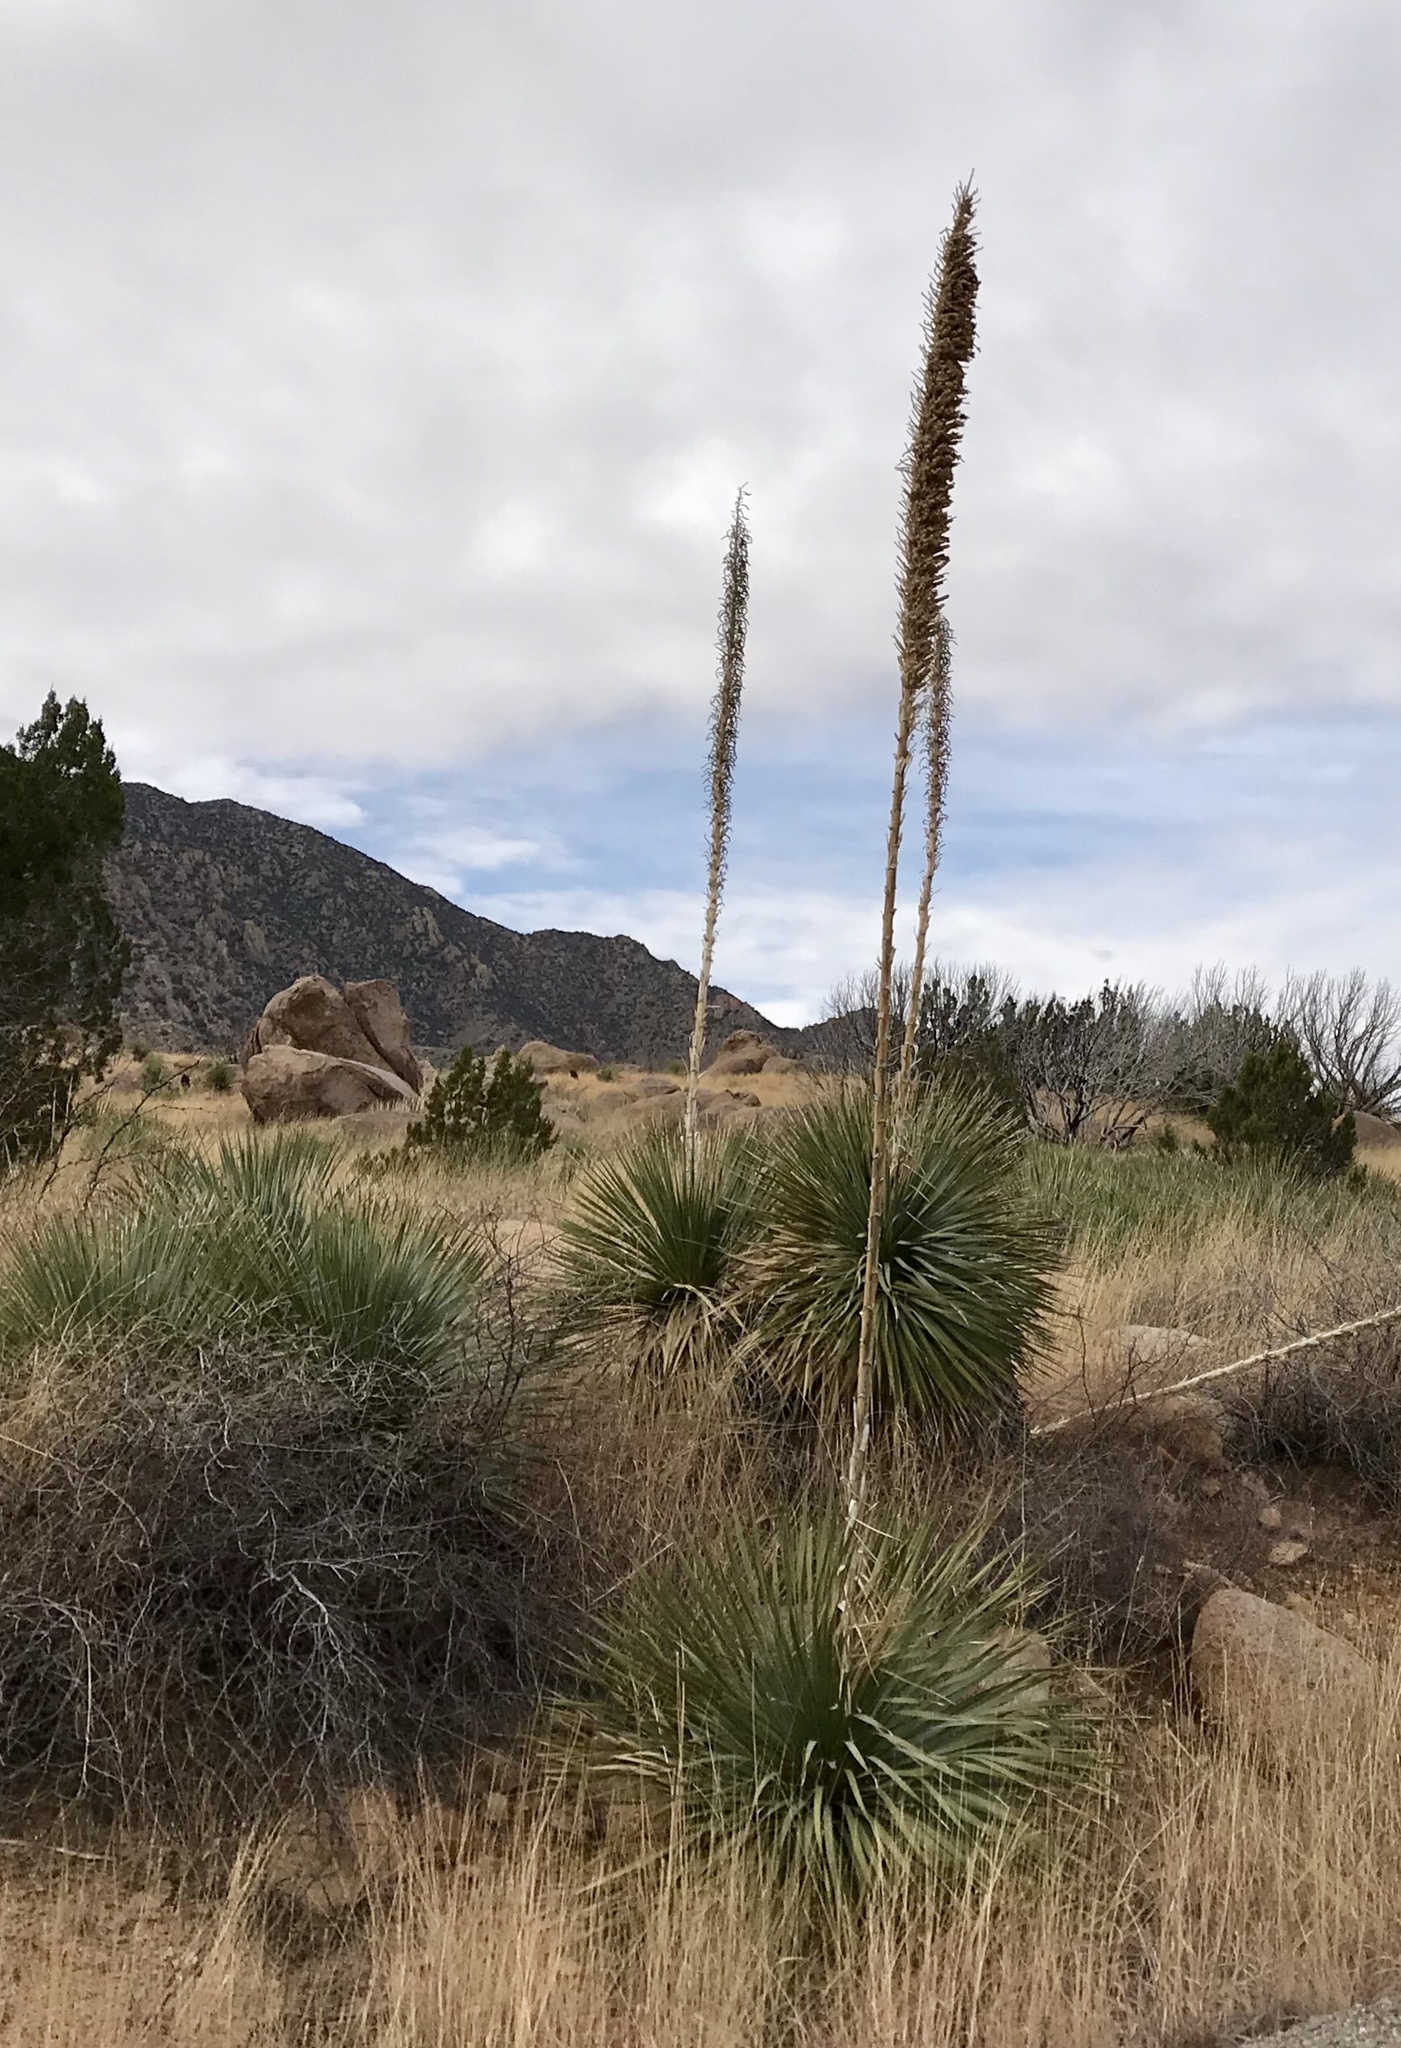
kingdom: Plantae
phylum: Tracheophyta
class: Liliopsida
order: Asparagales
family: Asparagaceae
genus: Dasylirion
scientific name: Dasylirion wheeleri
